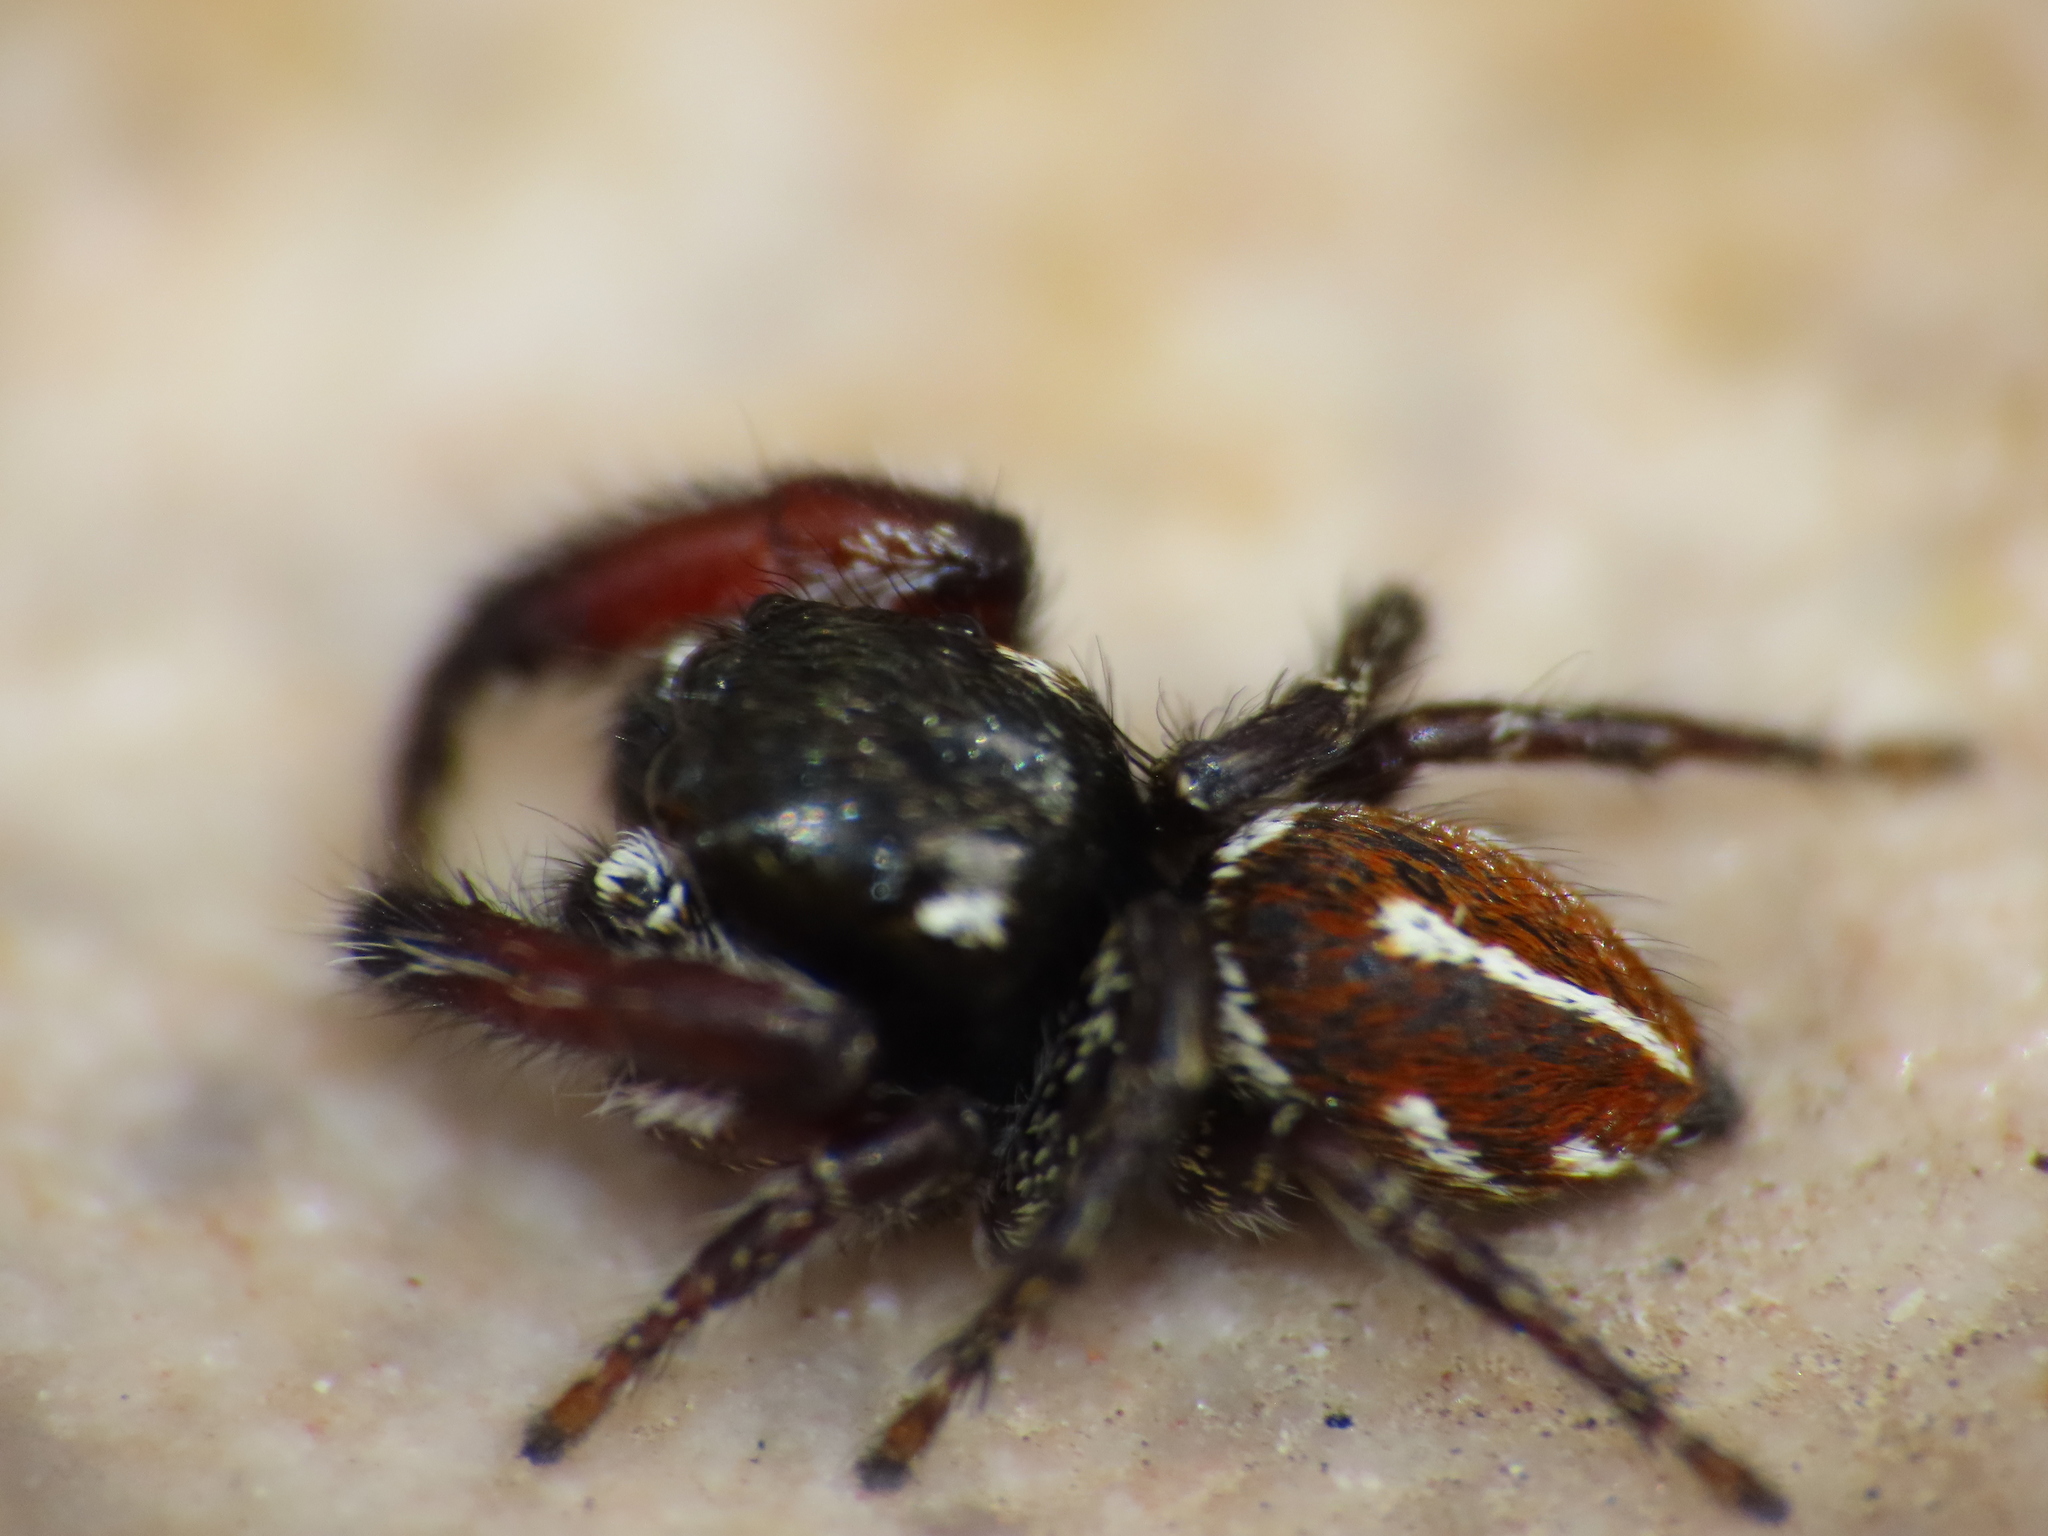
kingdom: Animalia
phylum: Arthropoda
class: Arachnida
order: Araneae
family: Salticidae
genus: Pellenes
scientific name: Pellenes nigrociliatus
